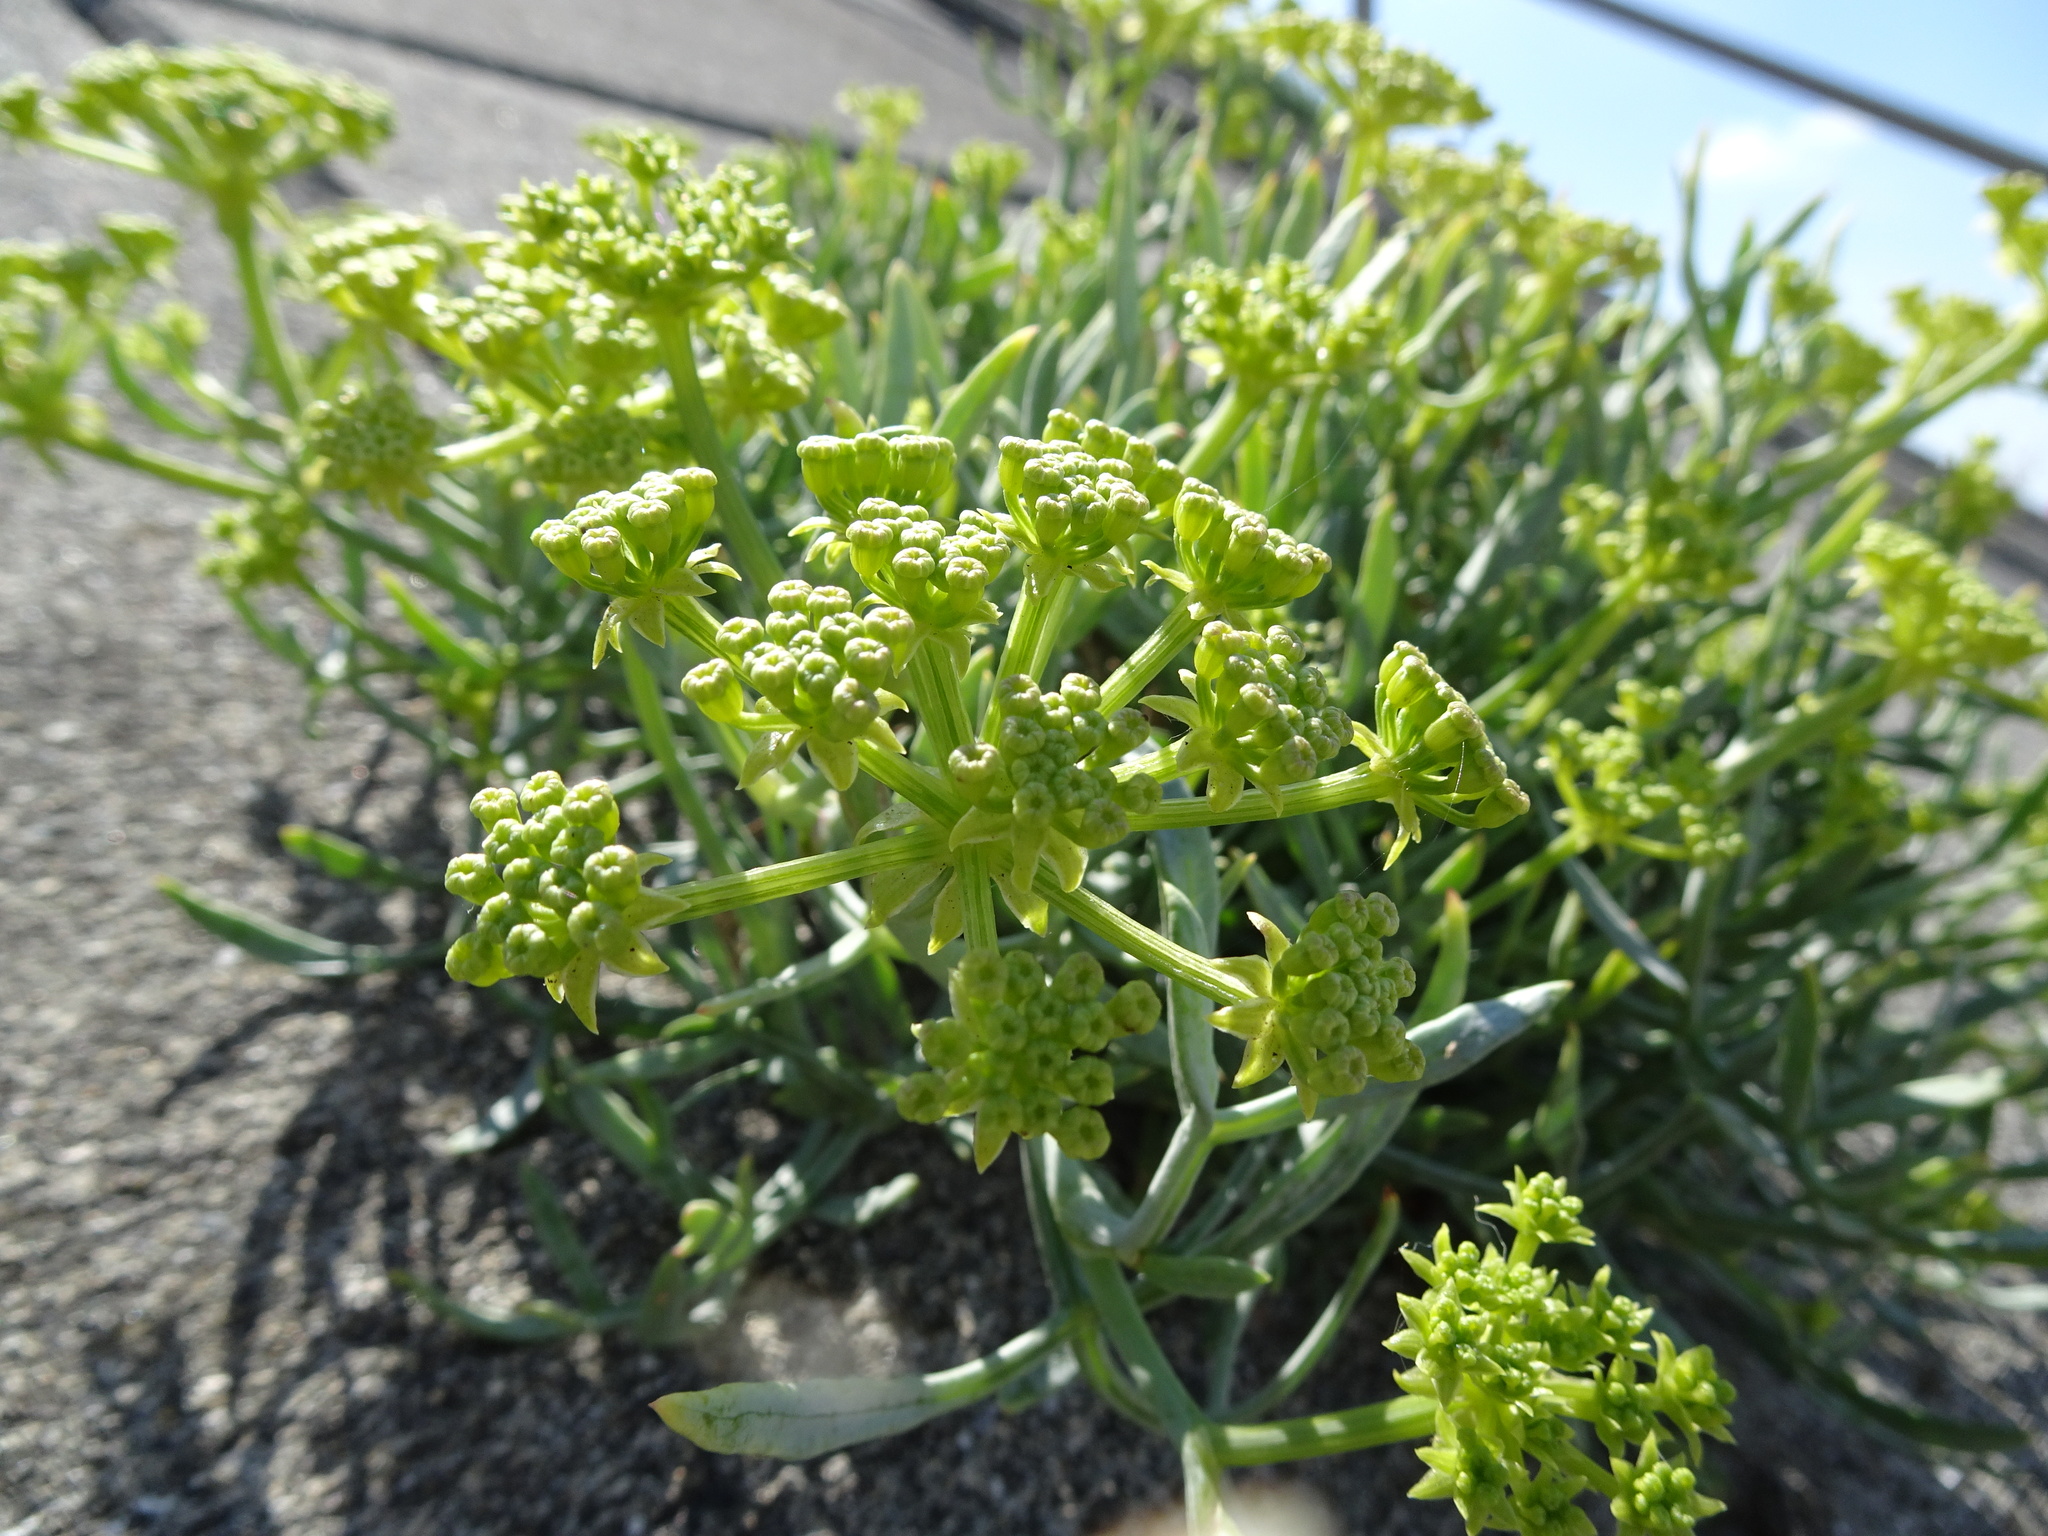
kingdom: Plantae
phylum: Tracheophyta
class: Magnoliopsida
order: Apiales
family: Apiaceae
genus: Crithmum
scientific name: Crithmum maritimum
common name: Rock samphire
